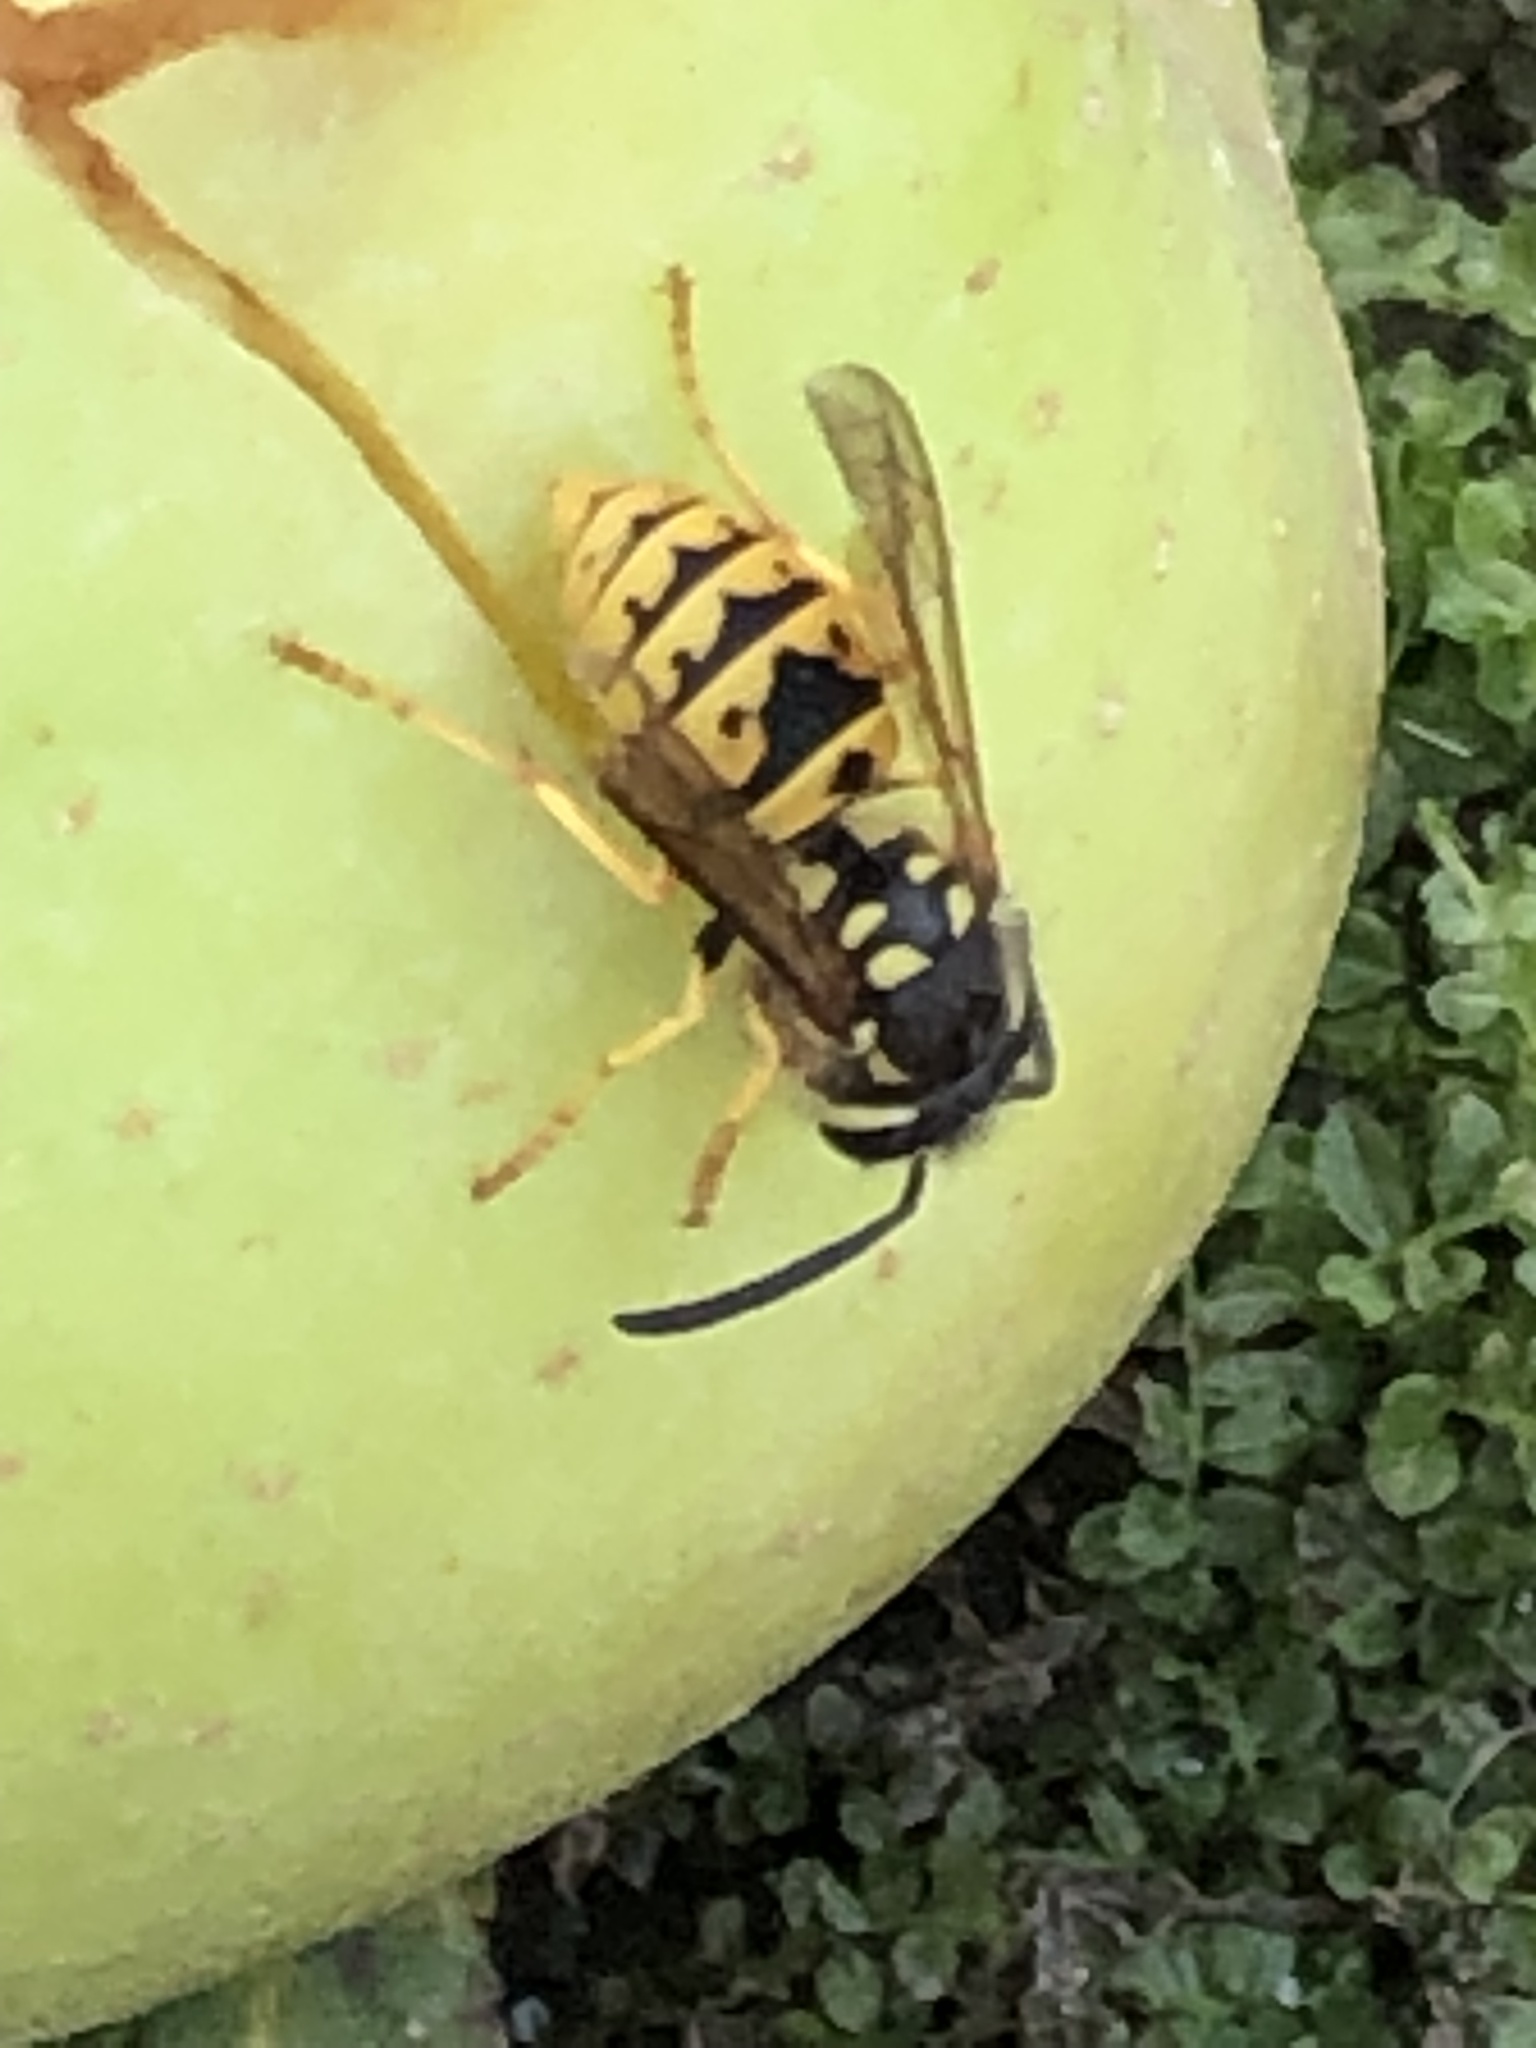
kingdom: Animalia
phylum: Arthropoda
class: Insecta
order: Hymenoptera
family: Vespidae
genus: Vespula
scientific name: Vespula germanica
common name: German wasp
